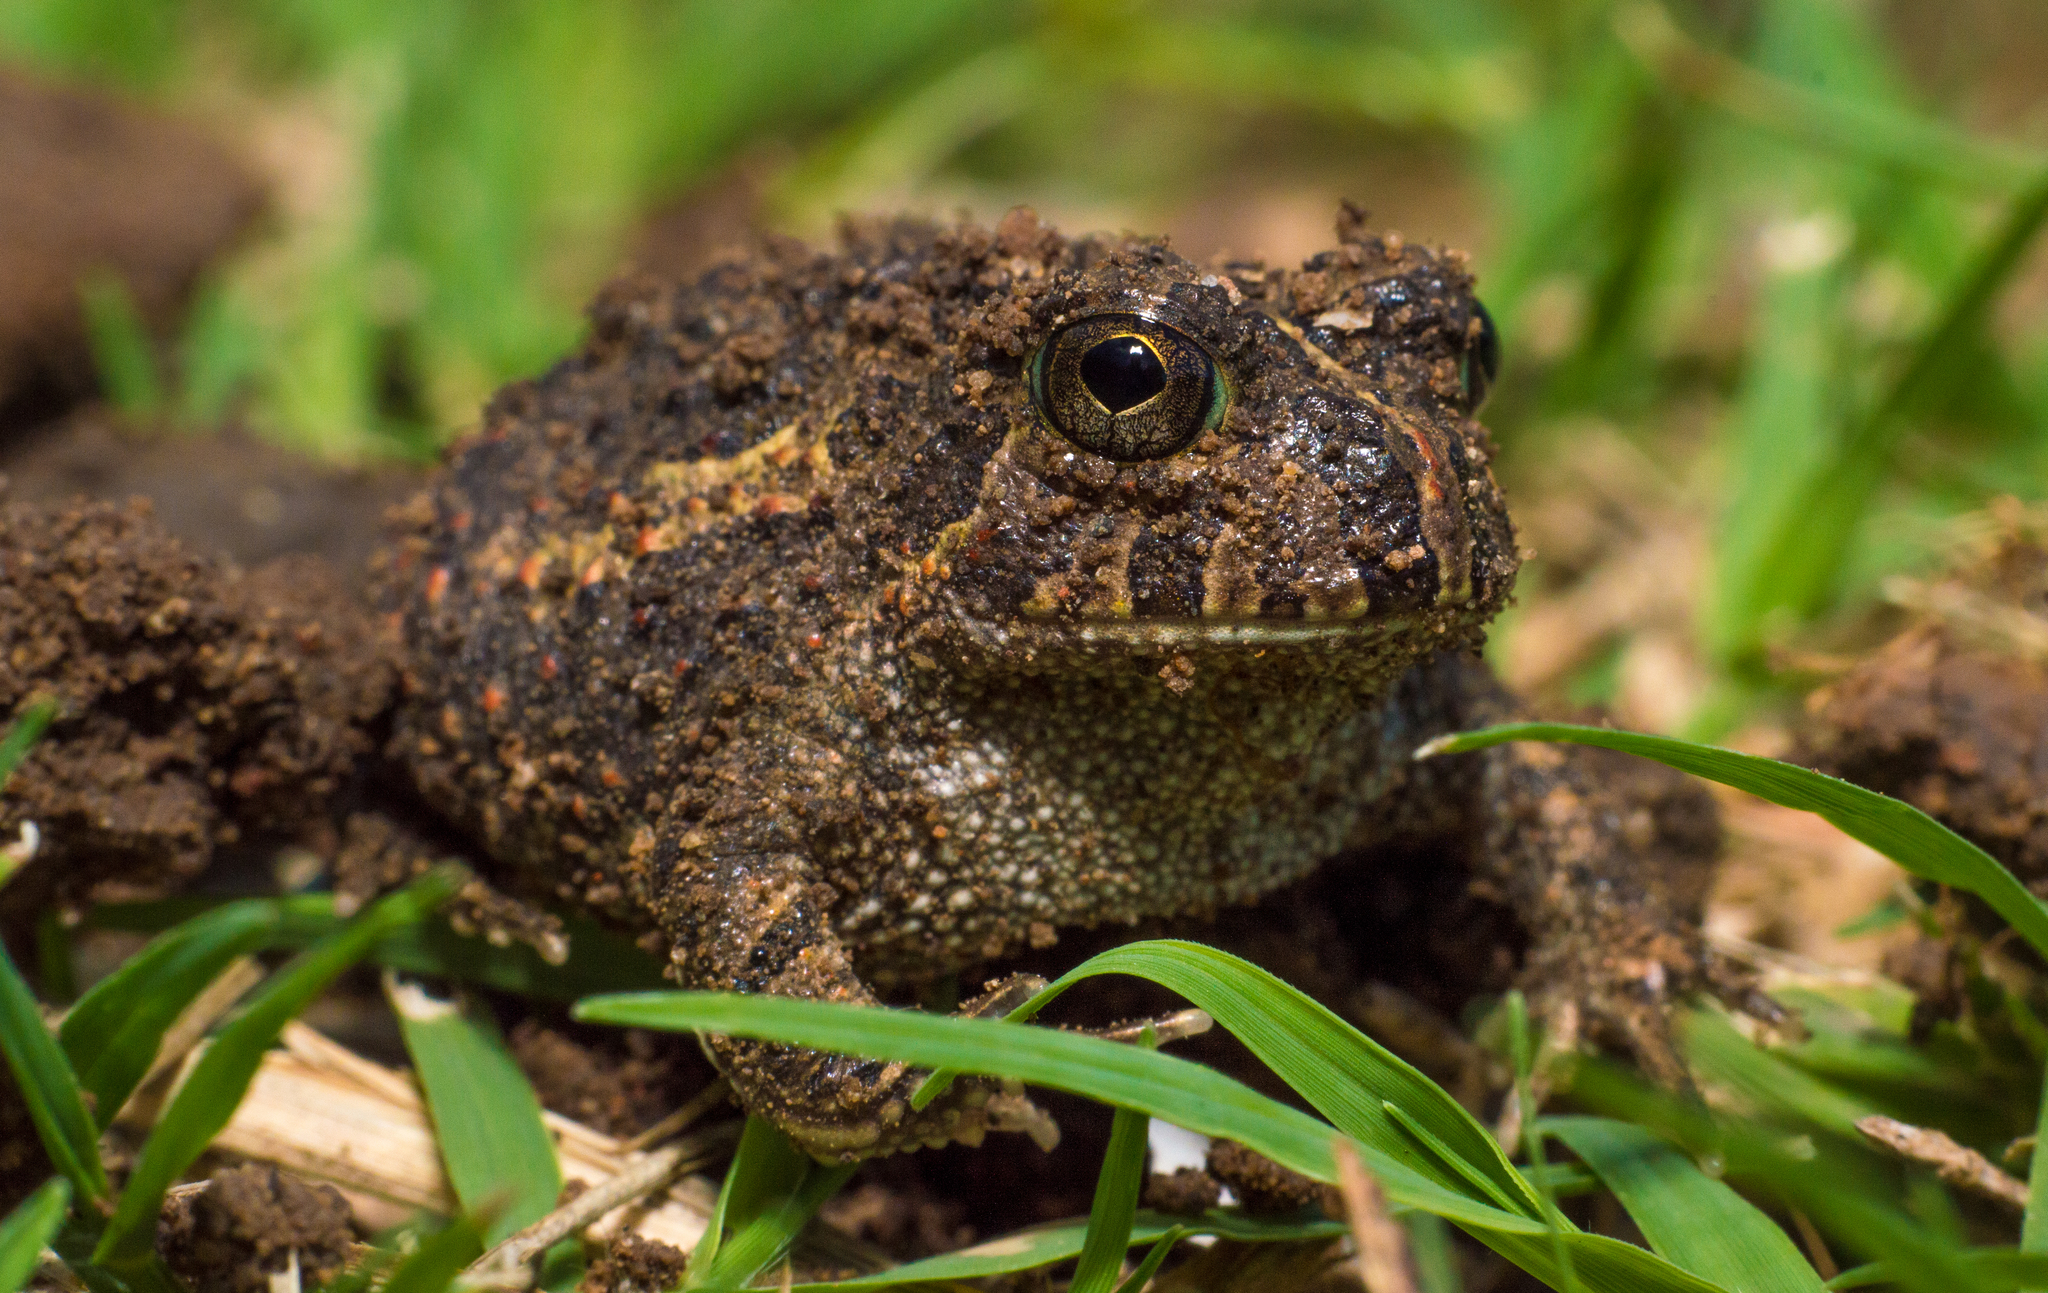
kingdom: Animalia
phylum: Chordata
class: Amphibia
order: Anura
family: Odontophrynidae
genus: Odontophrynus
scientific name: Odontophrynus
